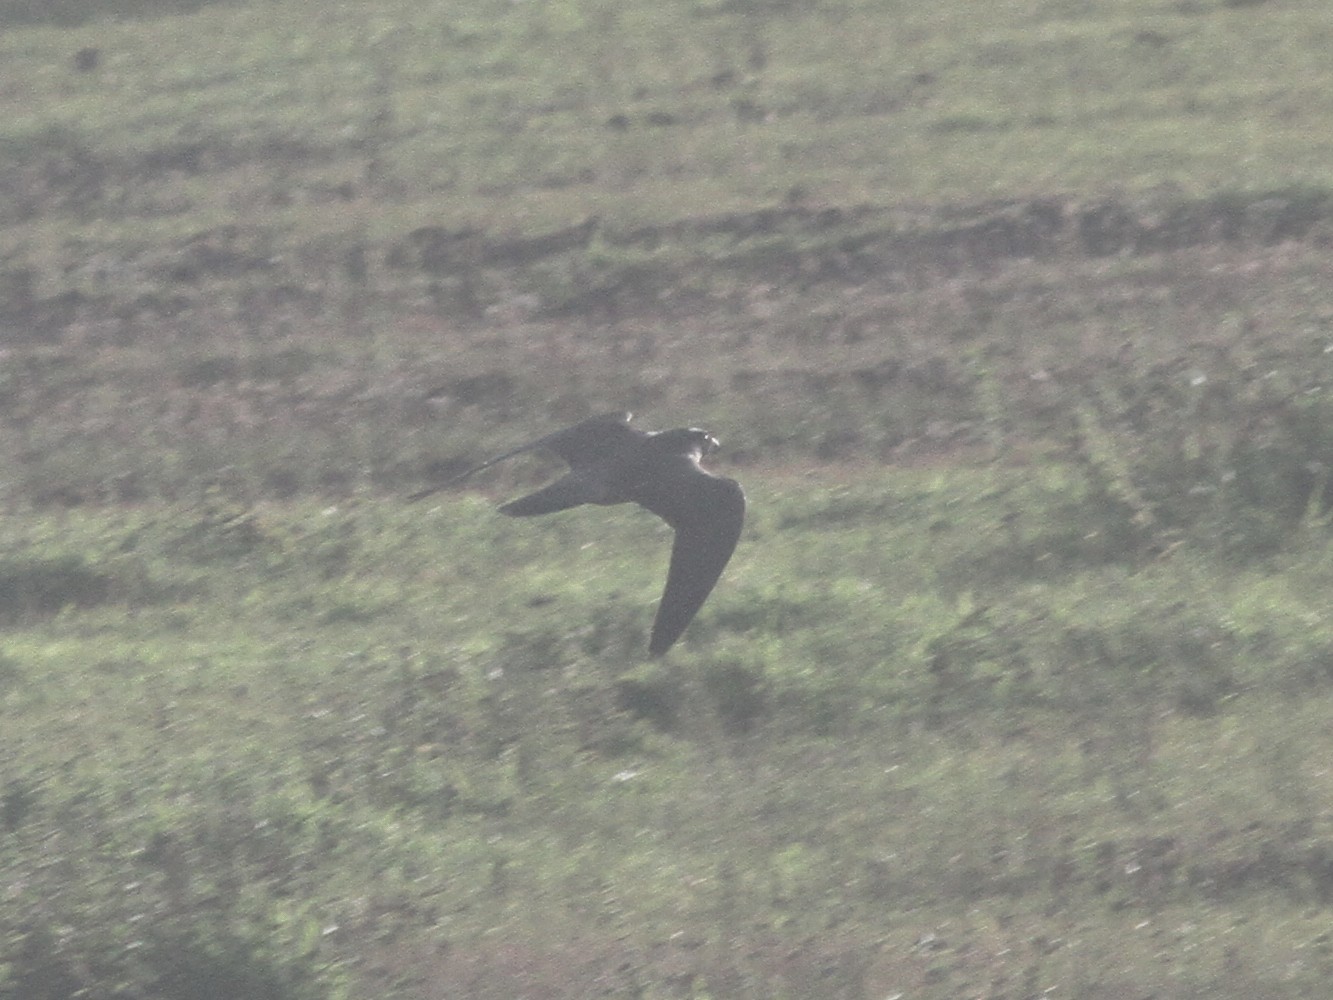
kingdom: Animalia
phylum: Chordata
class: Aves
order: Falconiformes
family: Falconidae
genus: Falco
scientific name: Falco peregrinus
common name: Peregrine falcon
